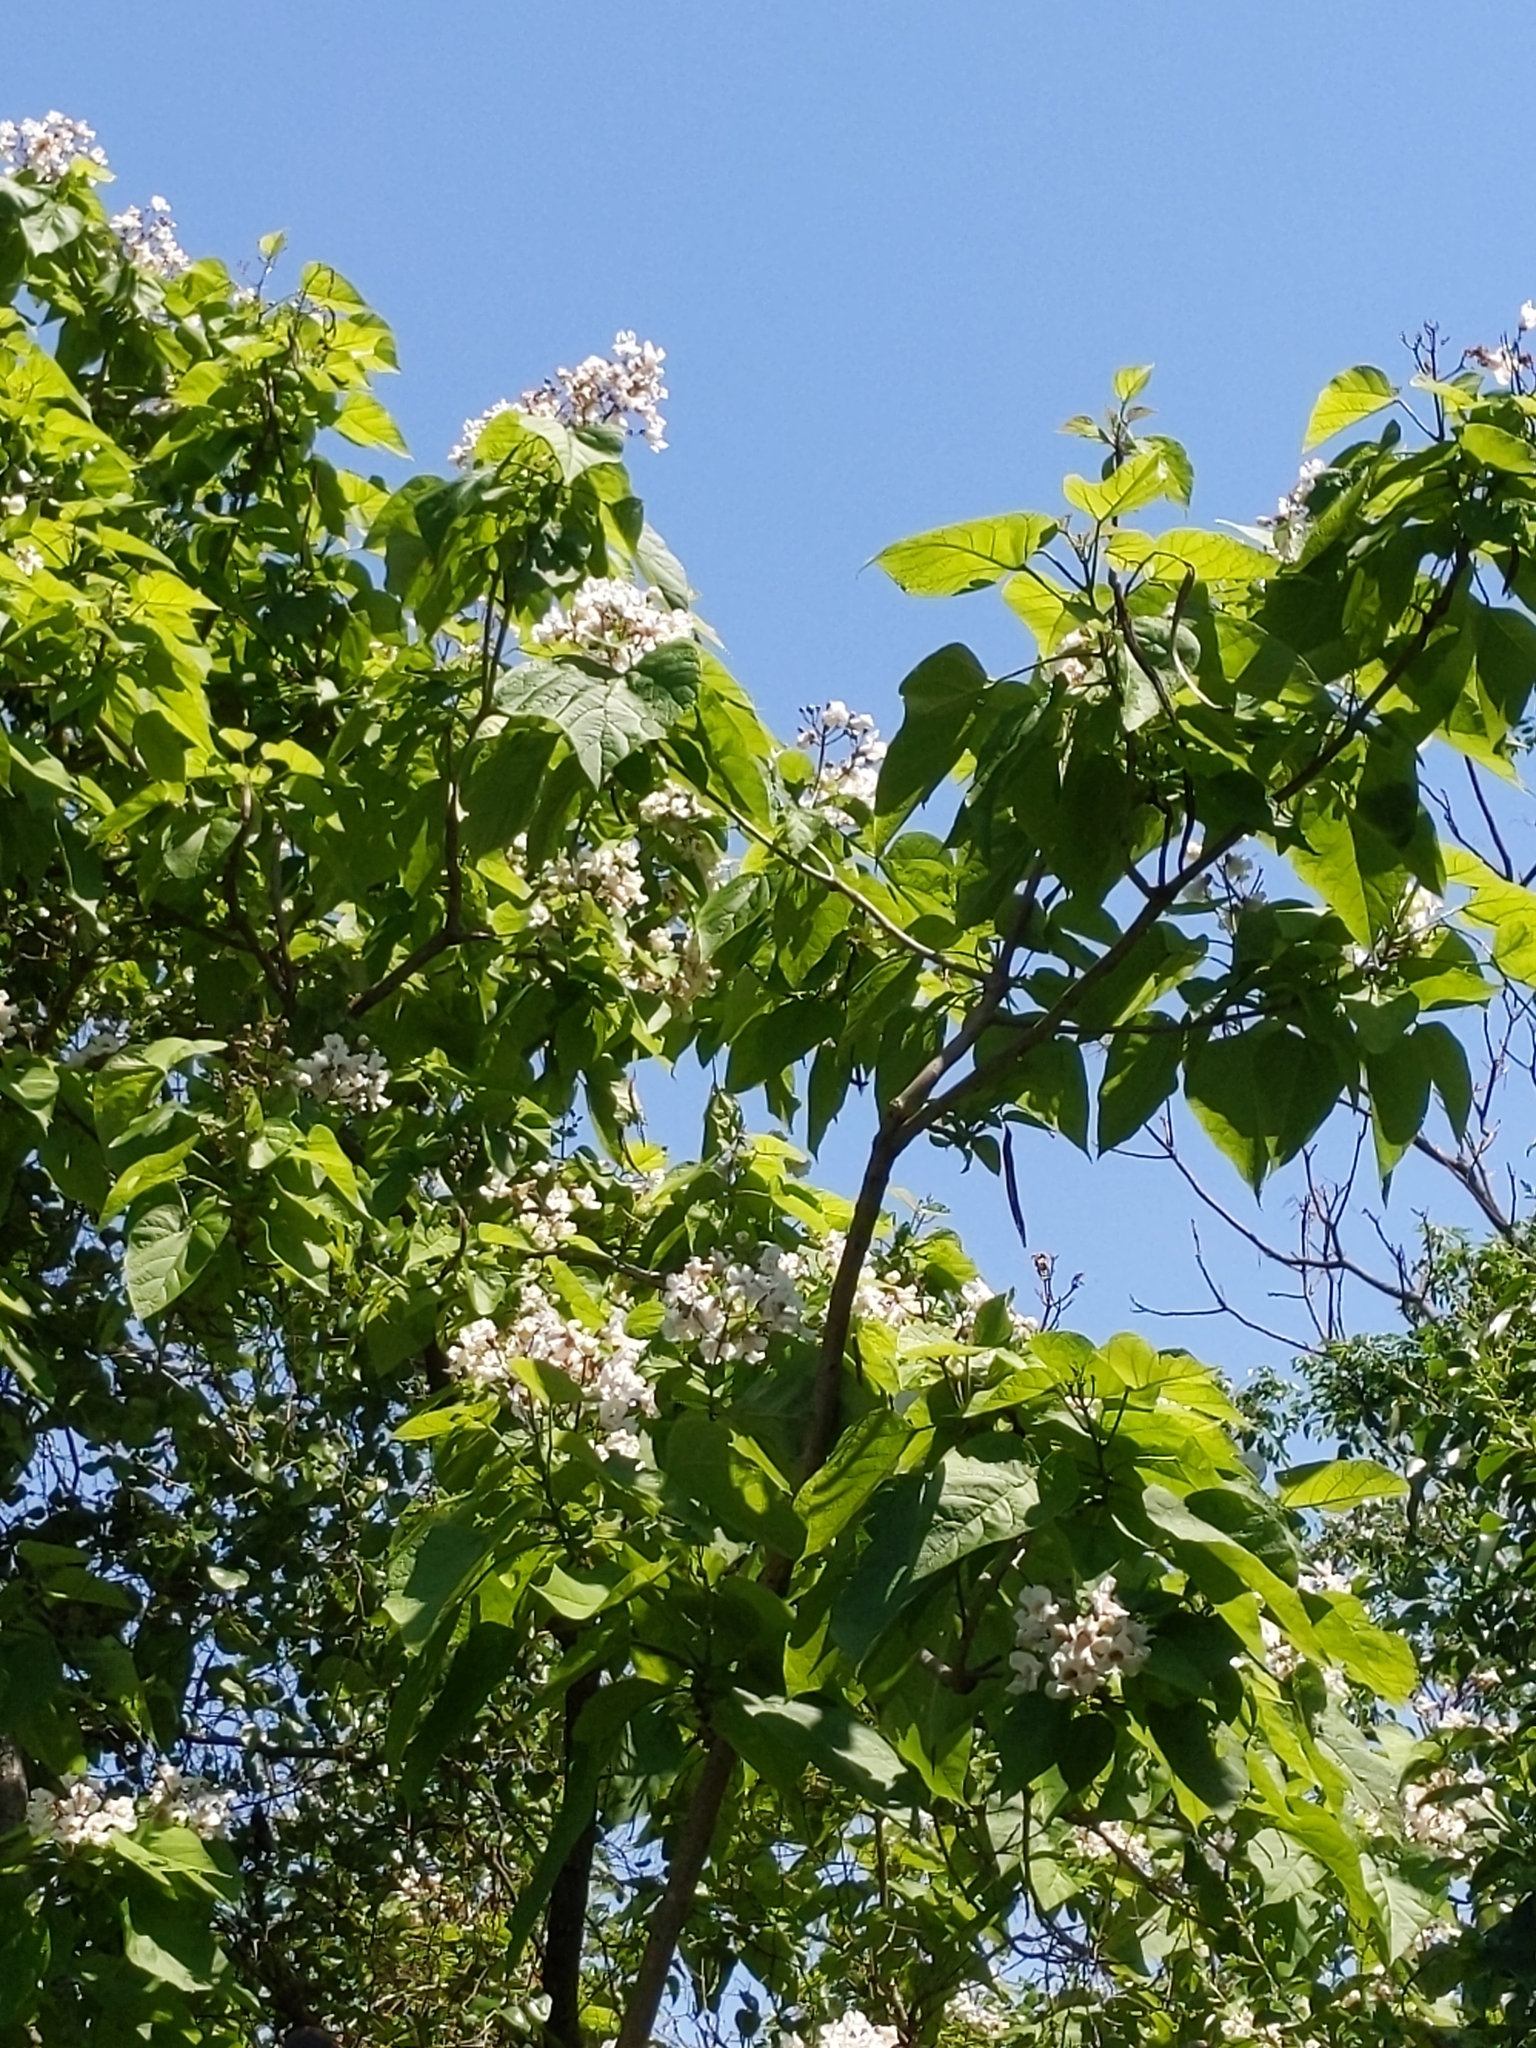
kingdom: Plantae
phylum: Tracheophyta
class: Magnoliopsida
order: Lamiales
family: Bignoniaceae
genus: Catalpa
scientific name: Catalpa bignonioides
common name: Southern catalpa
